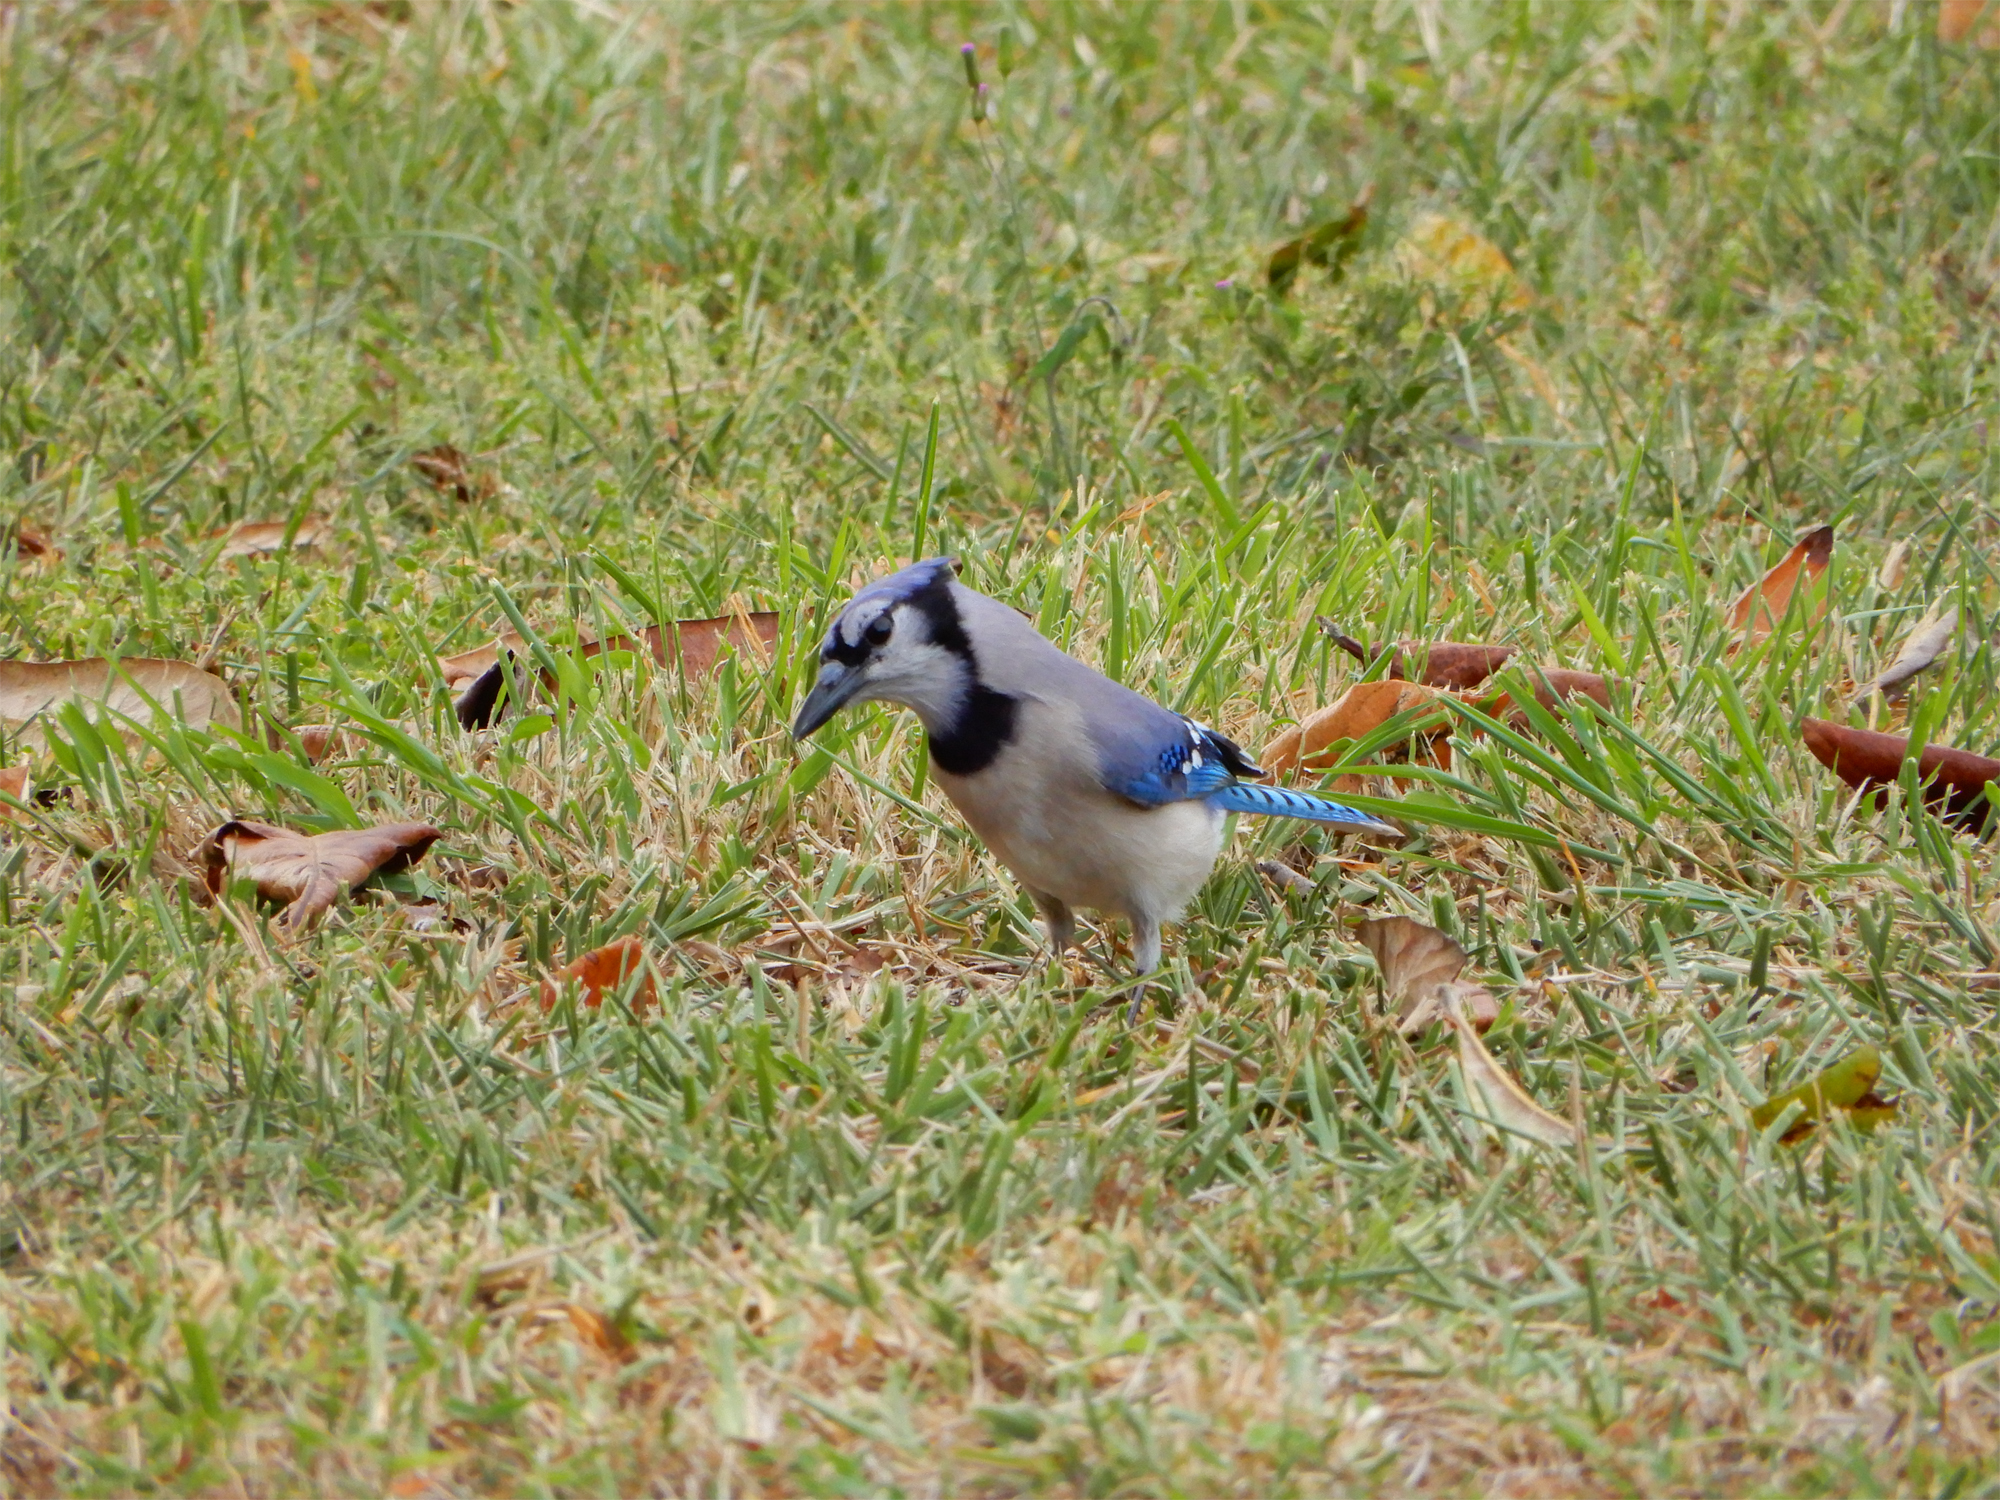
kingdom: Animalia
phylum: Chordata
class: Aves
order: Passeriformes
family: Corvidae
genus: Cyanocitta
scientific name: Cyanocitta cristata
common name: Blue jay
